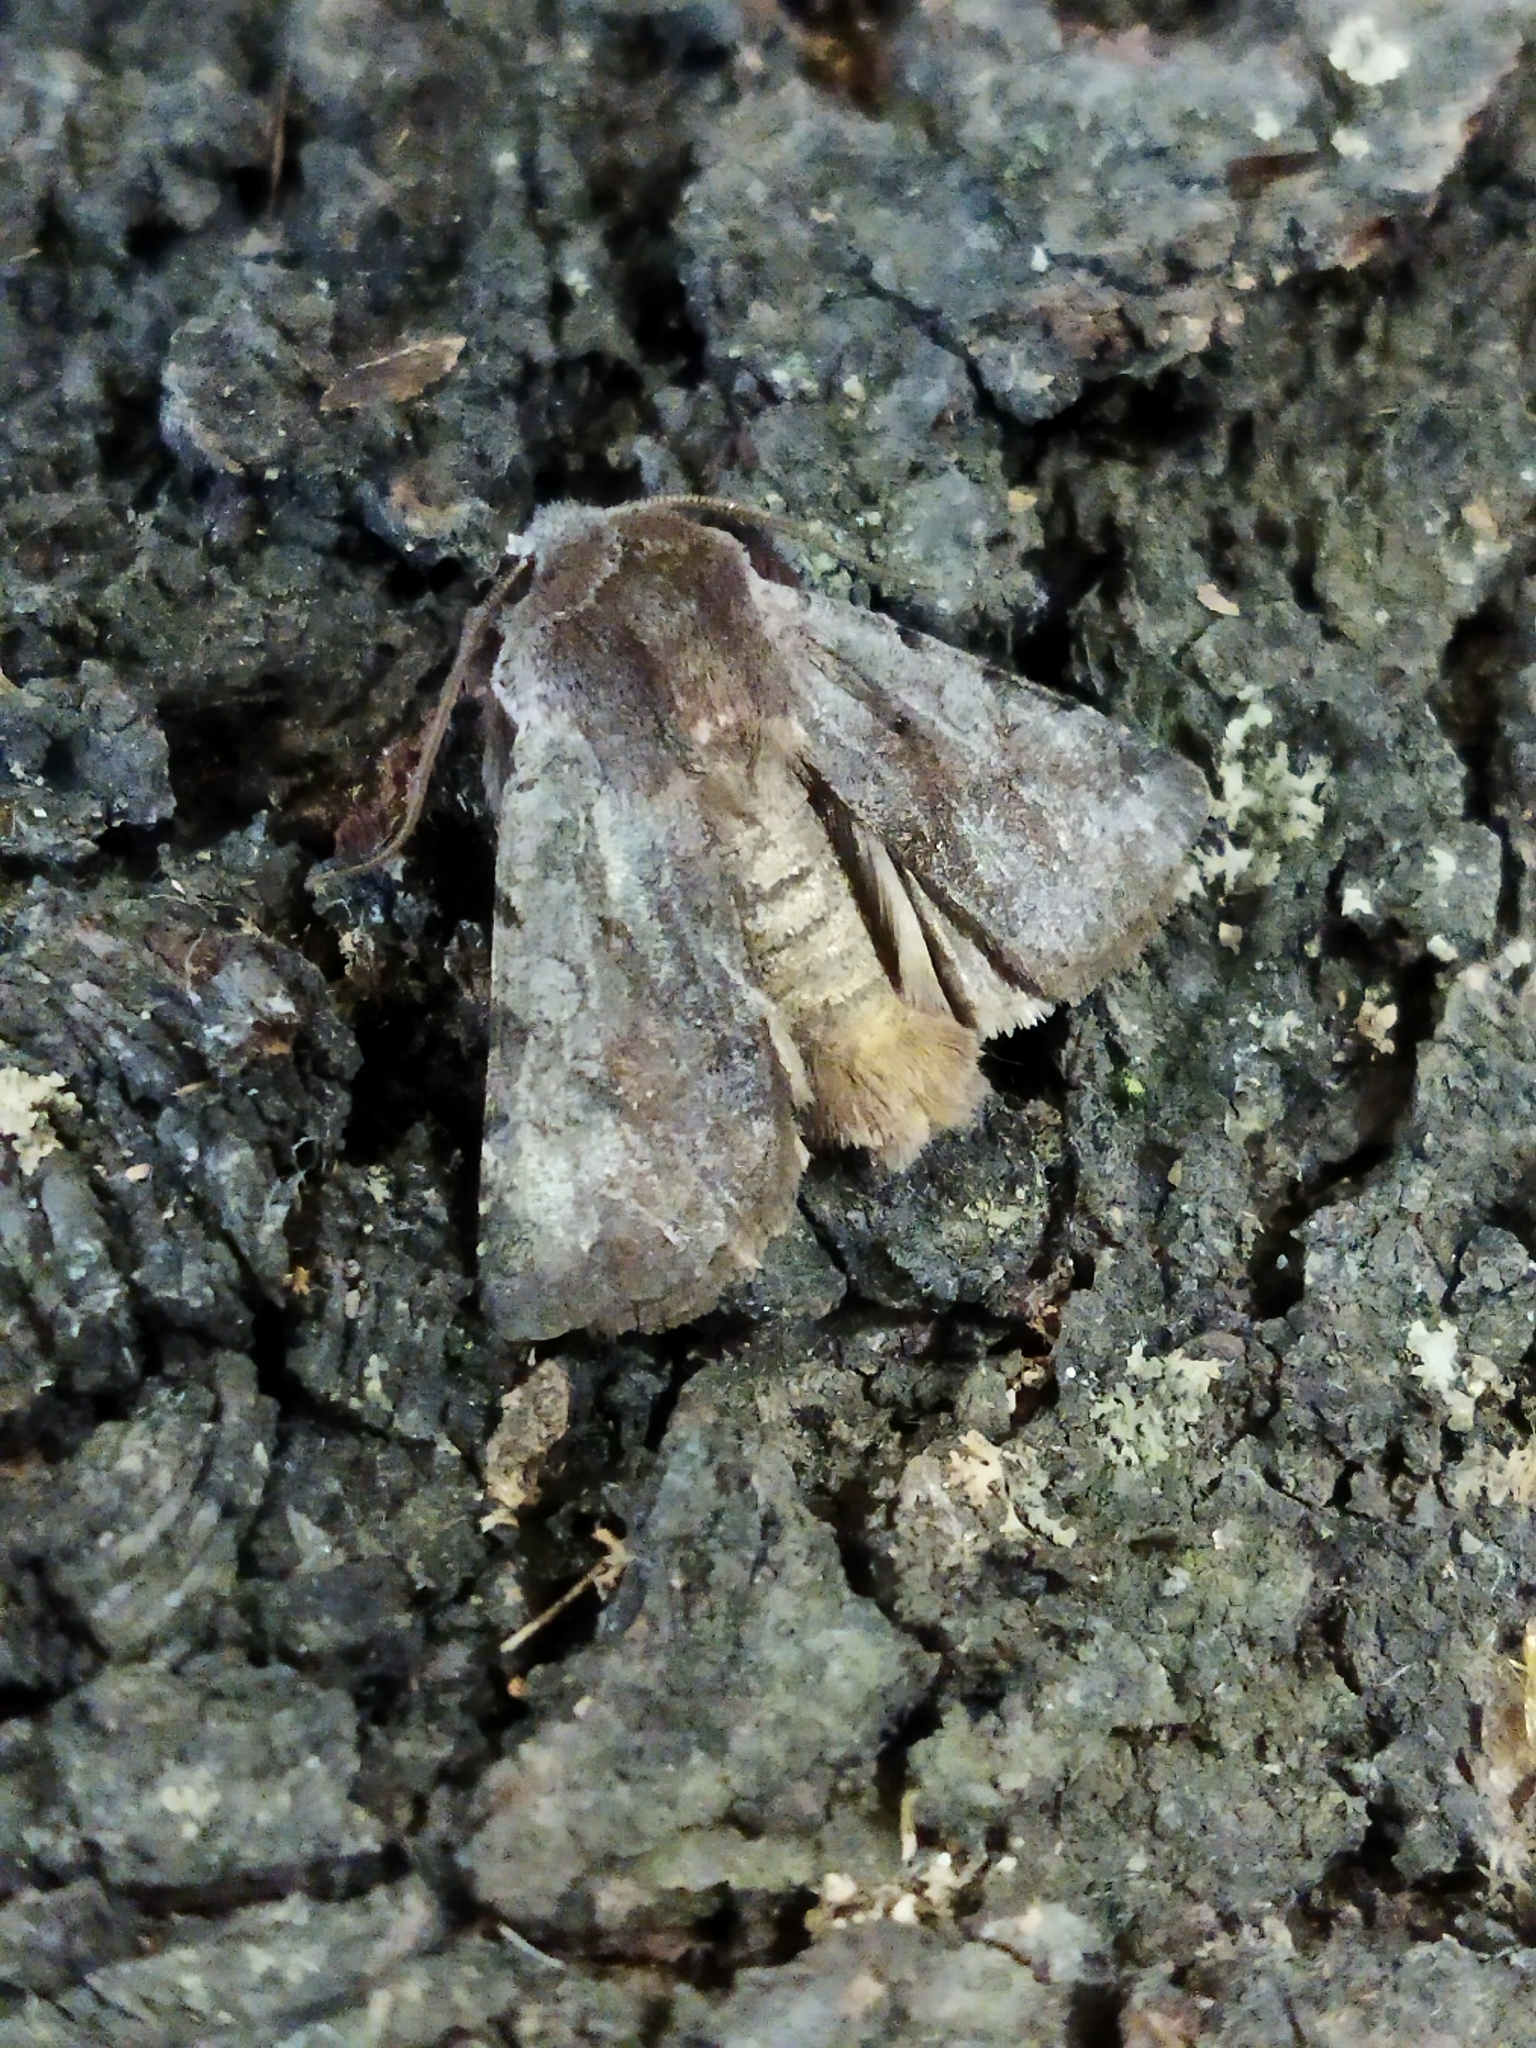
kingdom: Animalia
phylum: Arthropoda
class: Insecta
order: Lepidoptera
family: Noctuidae
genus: Cerastis
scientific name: Cerastis rubricosa
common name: Red chestnut
